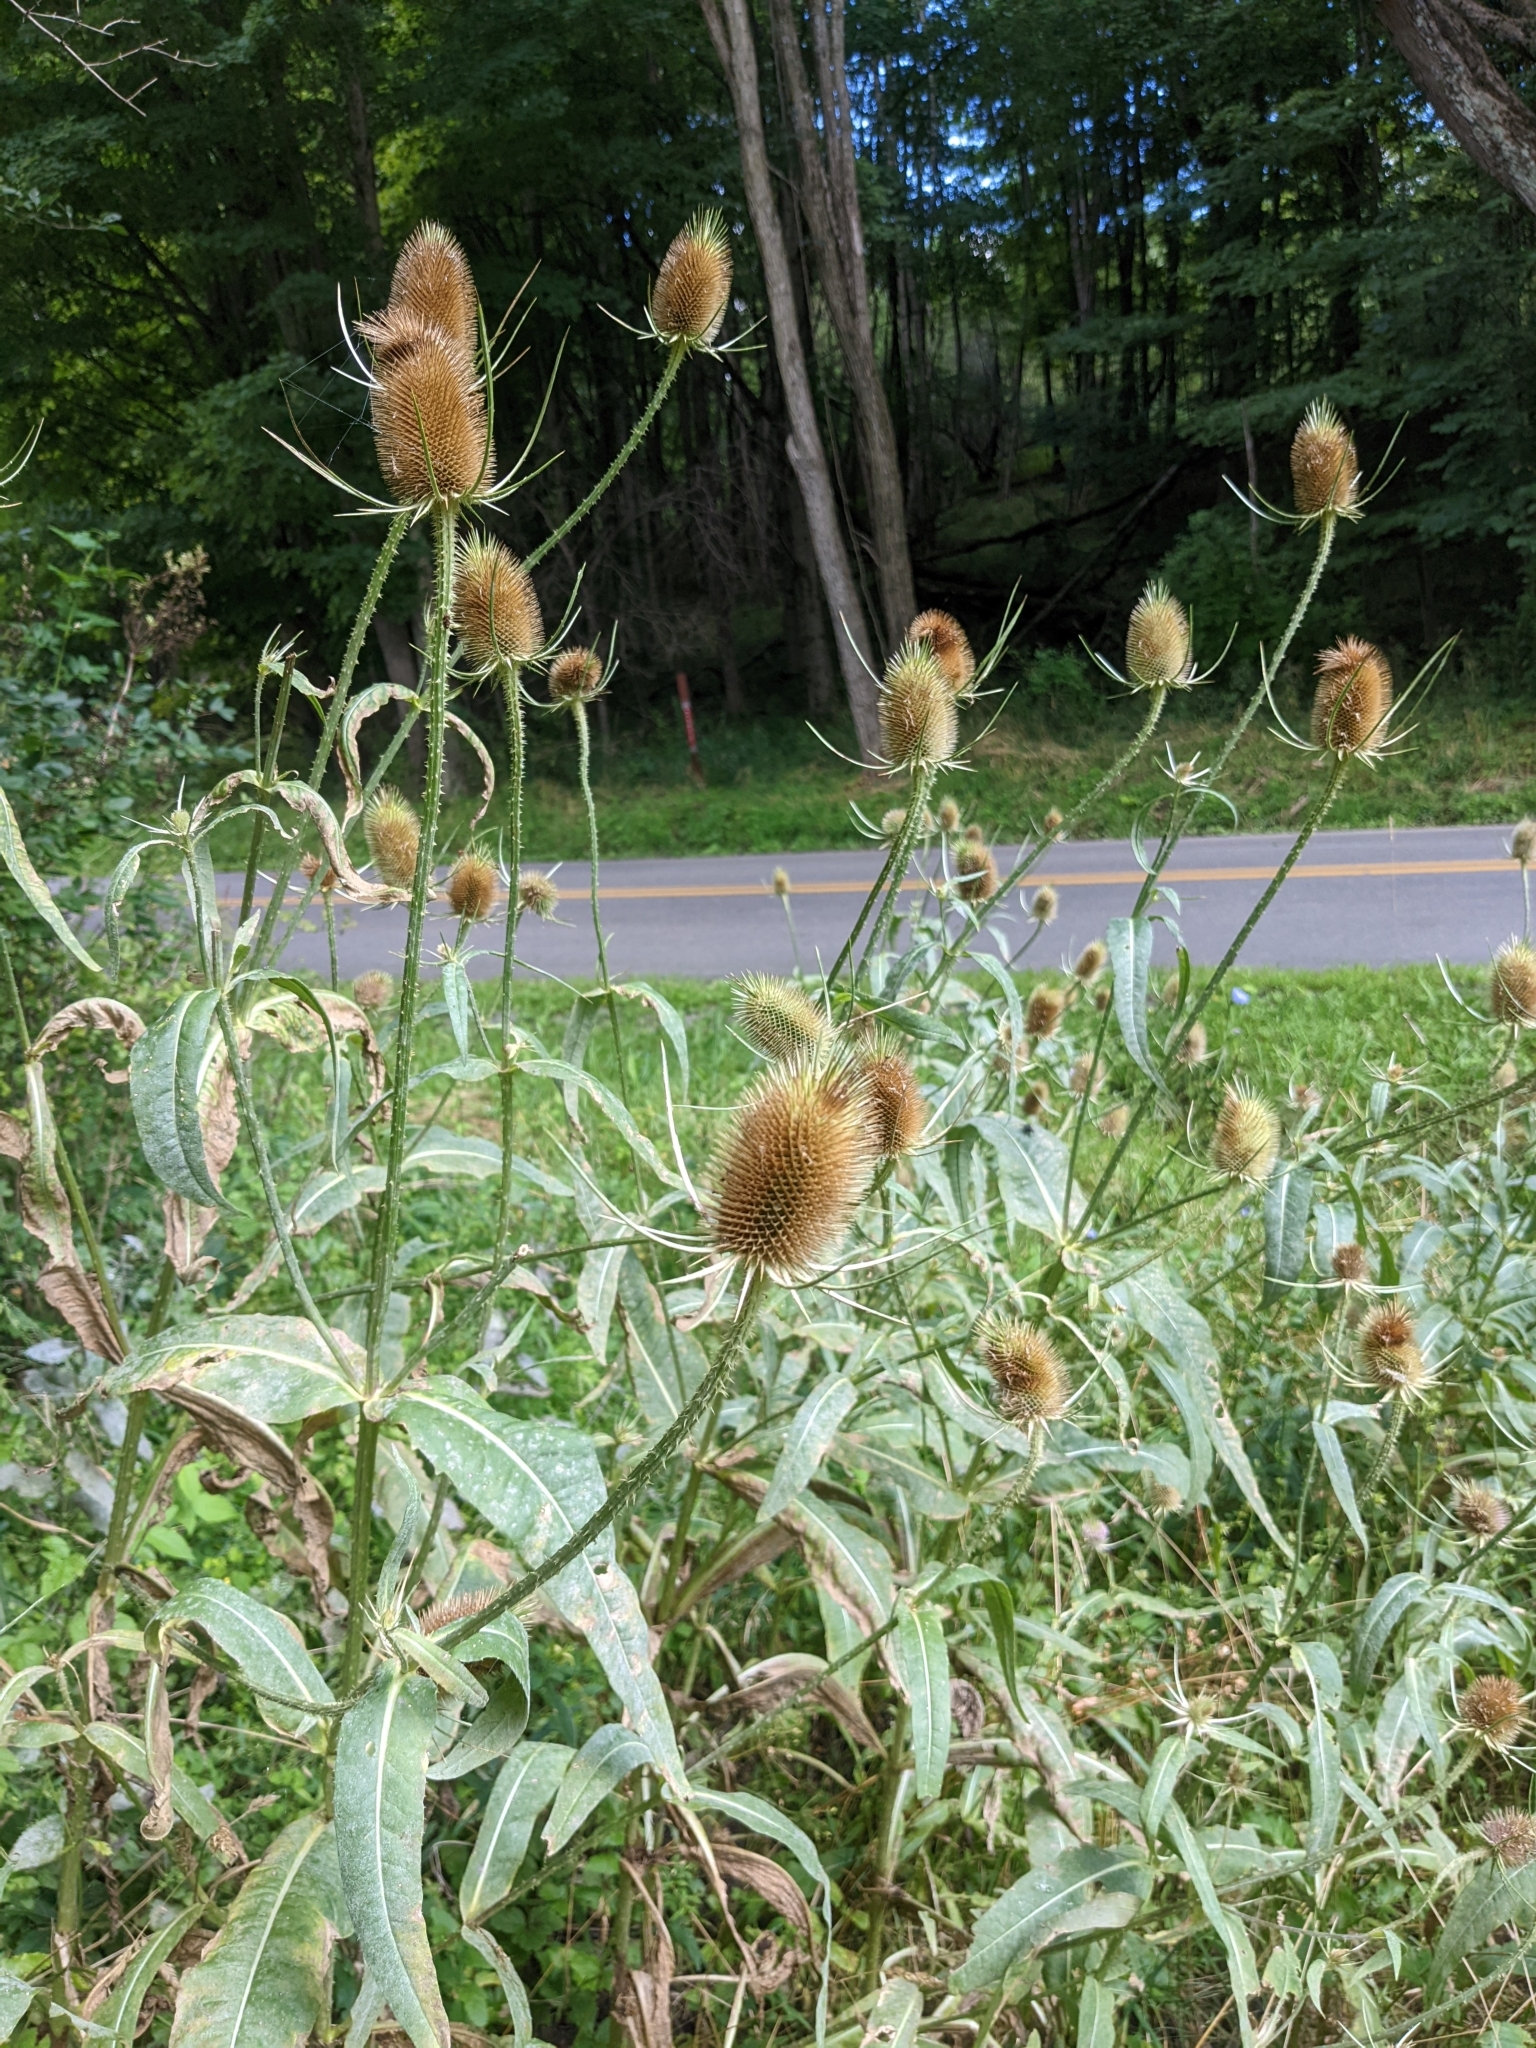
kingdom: Plantae
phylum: Tracheophyta
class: Magnoliopsida
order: Dipsacales
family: Caprifoliaceae
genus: Dipsacus
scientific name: Dipsacus fullonum
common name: Teasel
